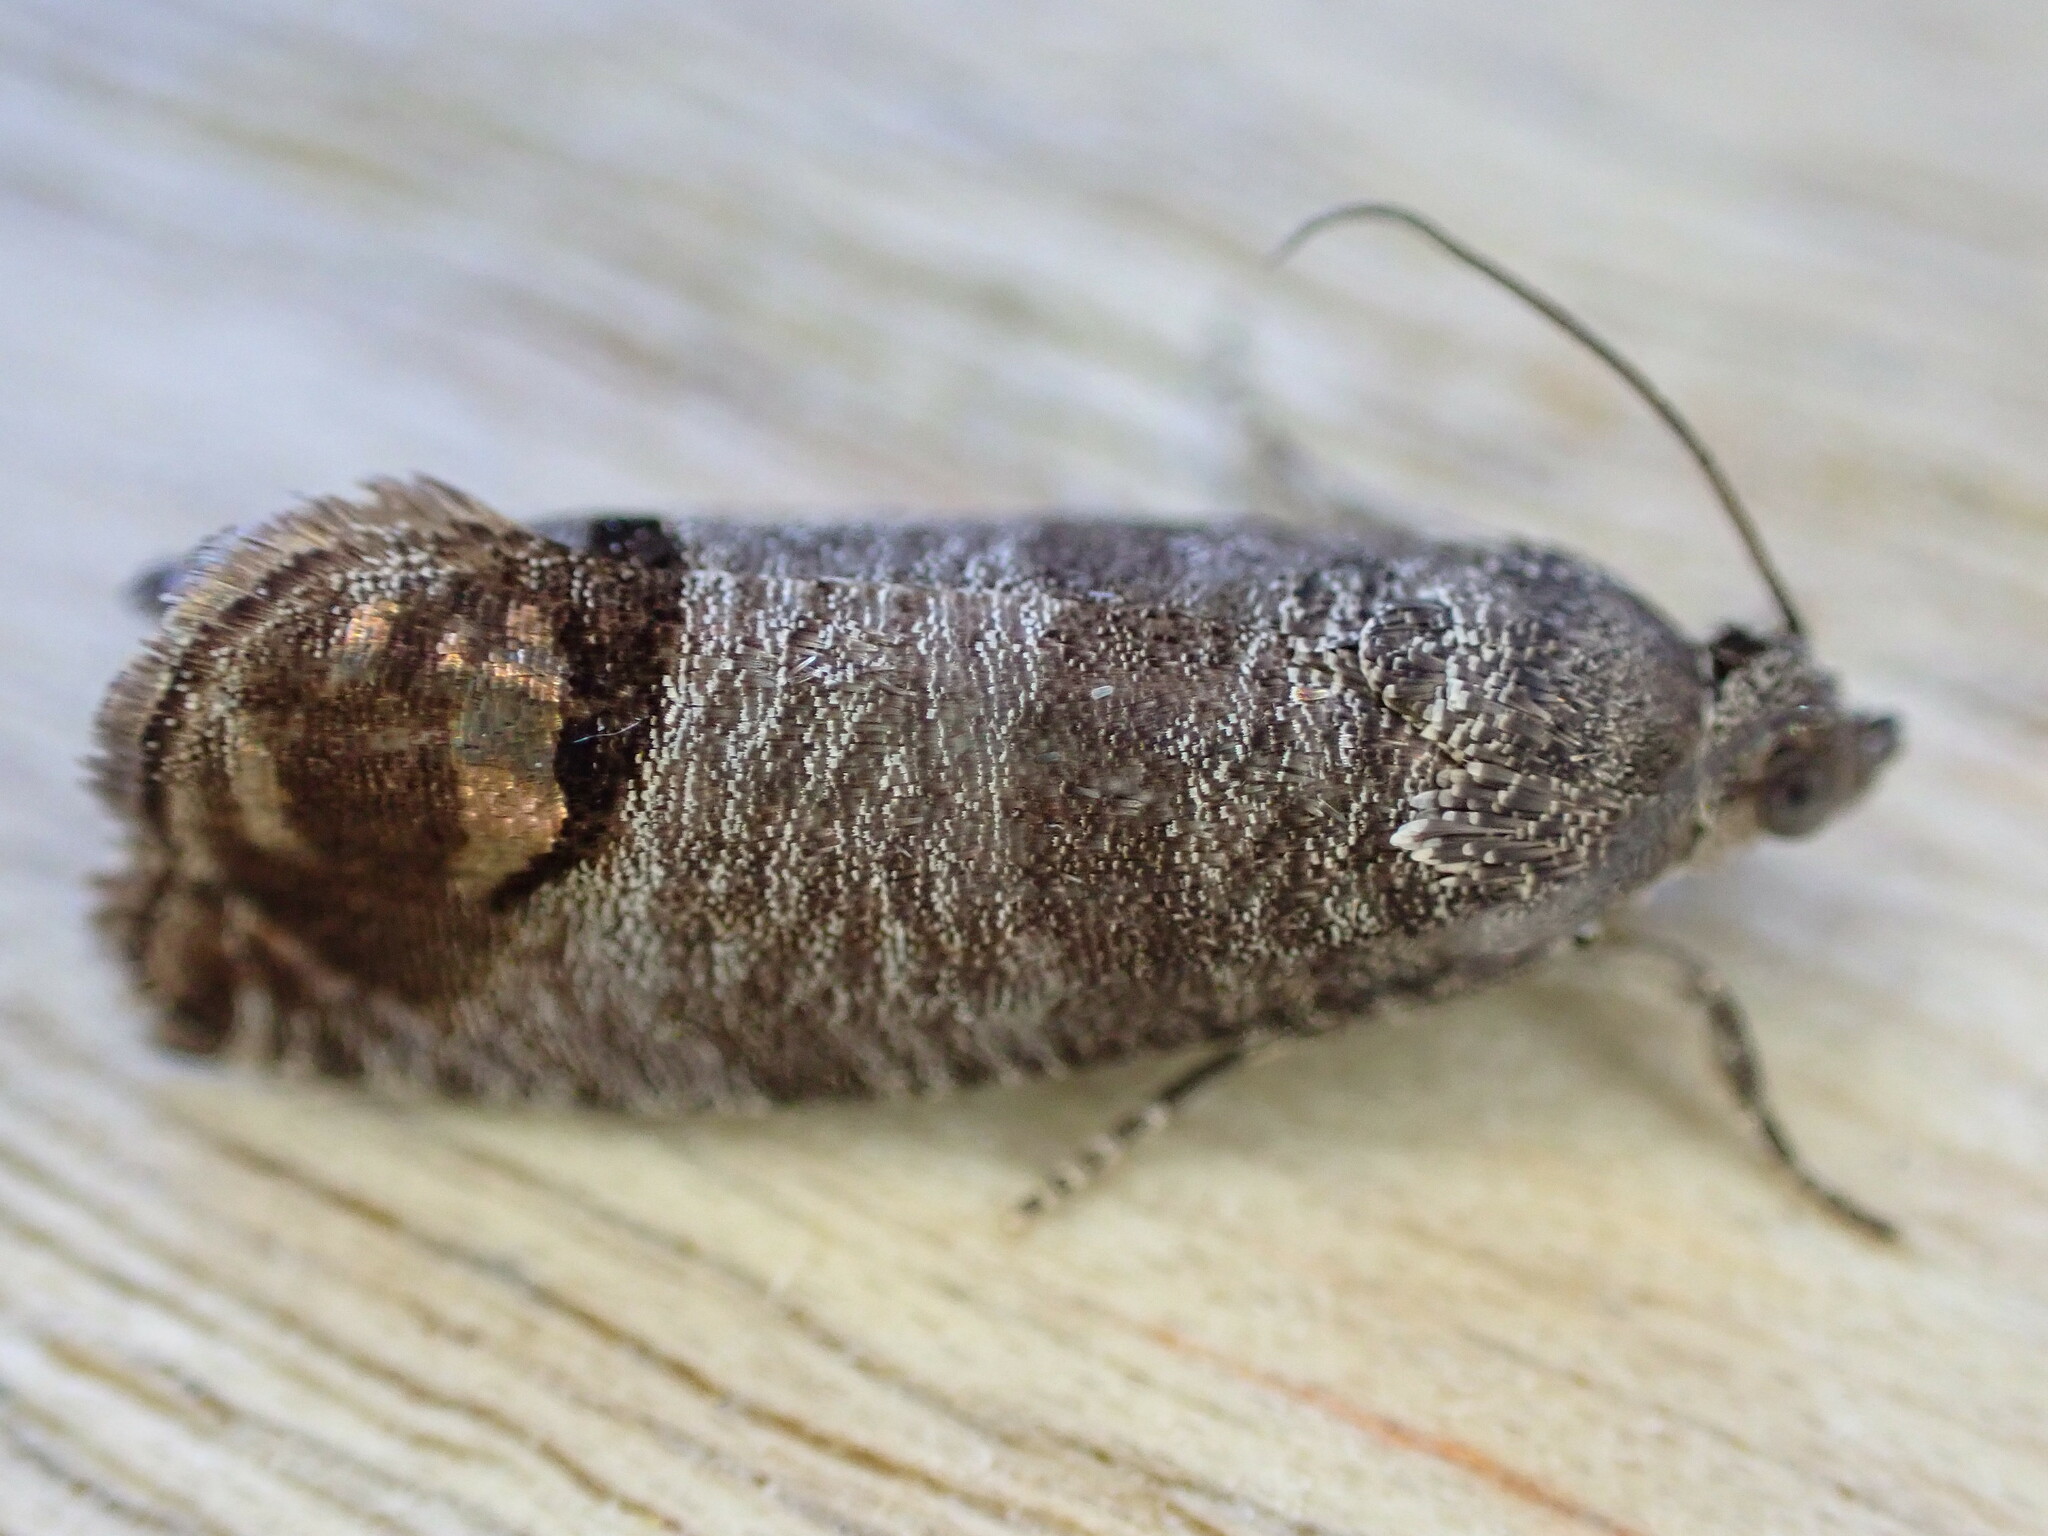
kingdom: Animalia
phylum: Arthropoda
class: Insecta
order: Lepidoptera
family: Tortricidae
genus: Cydia
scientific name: Cydia pomonella
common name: Codling moth
